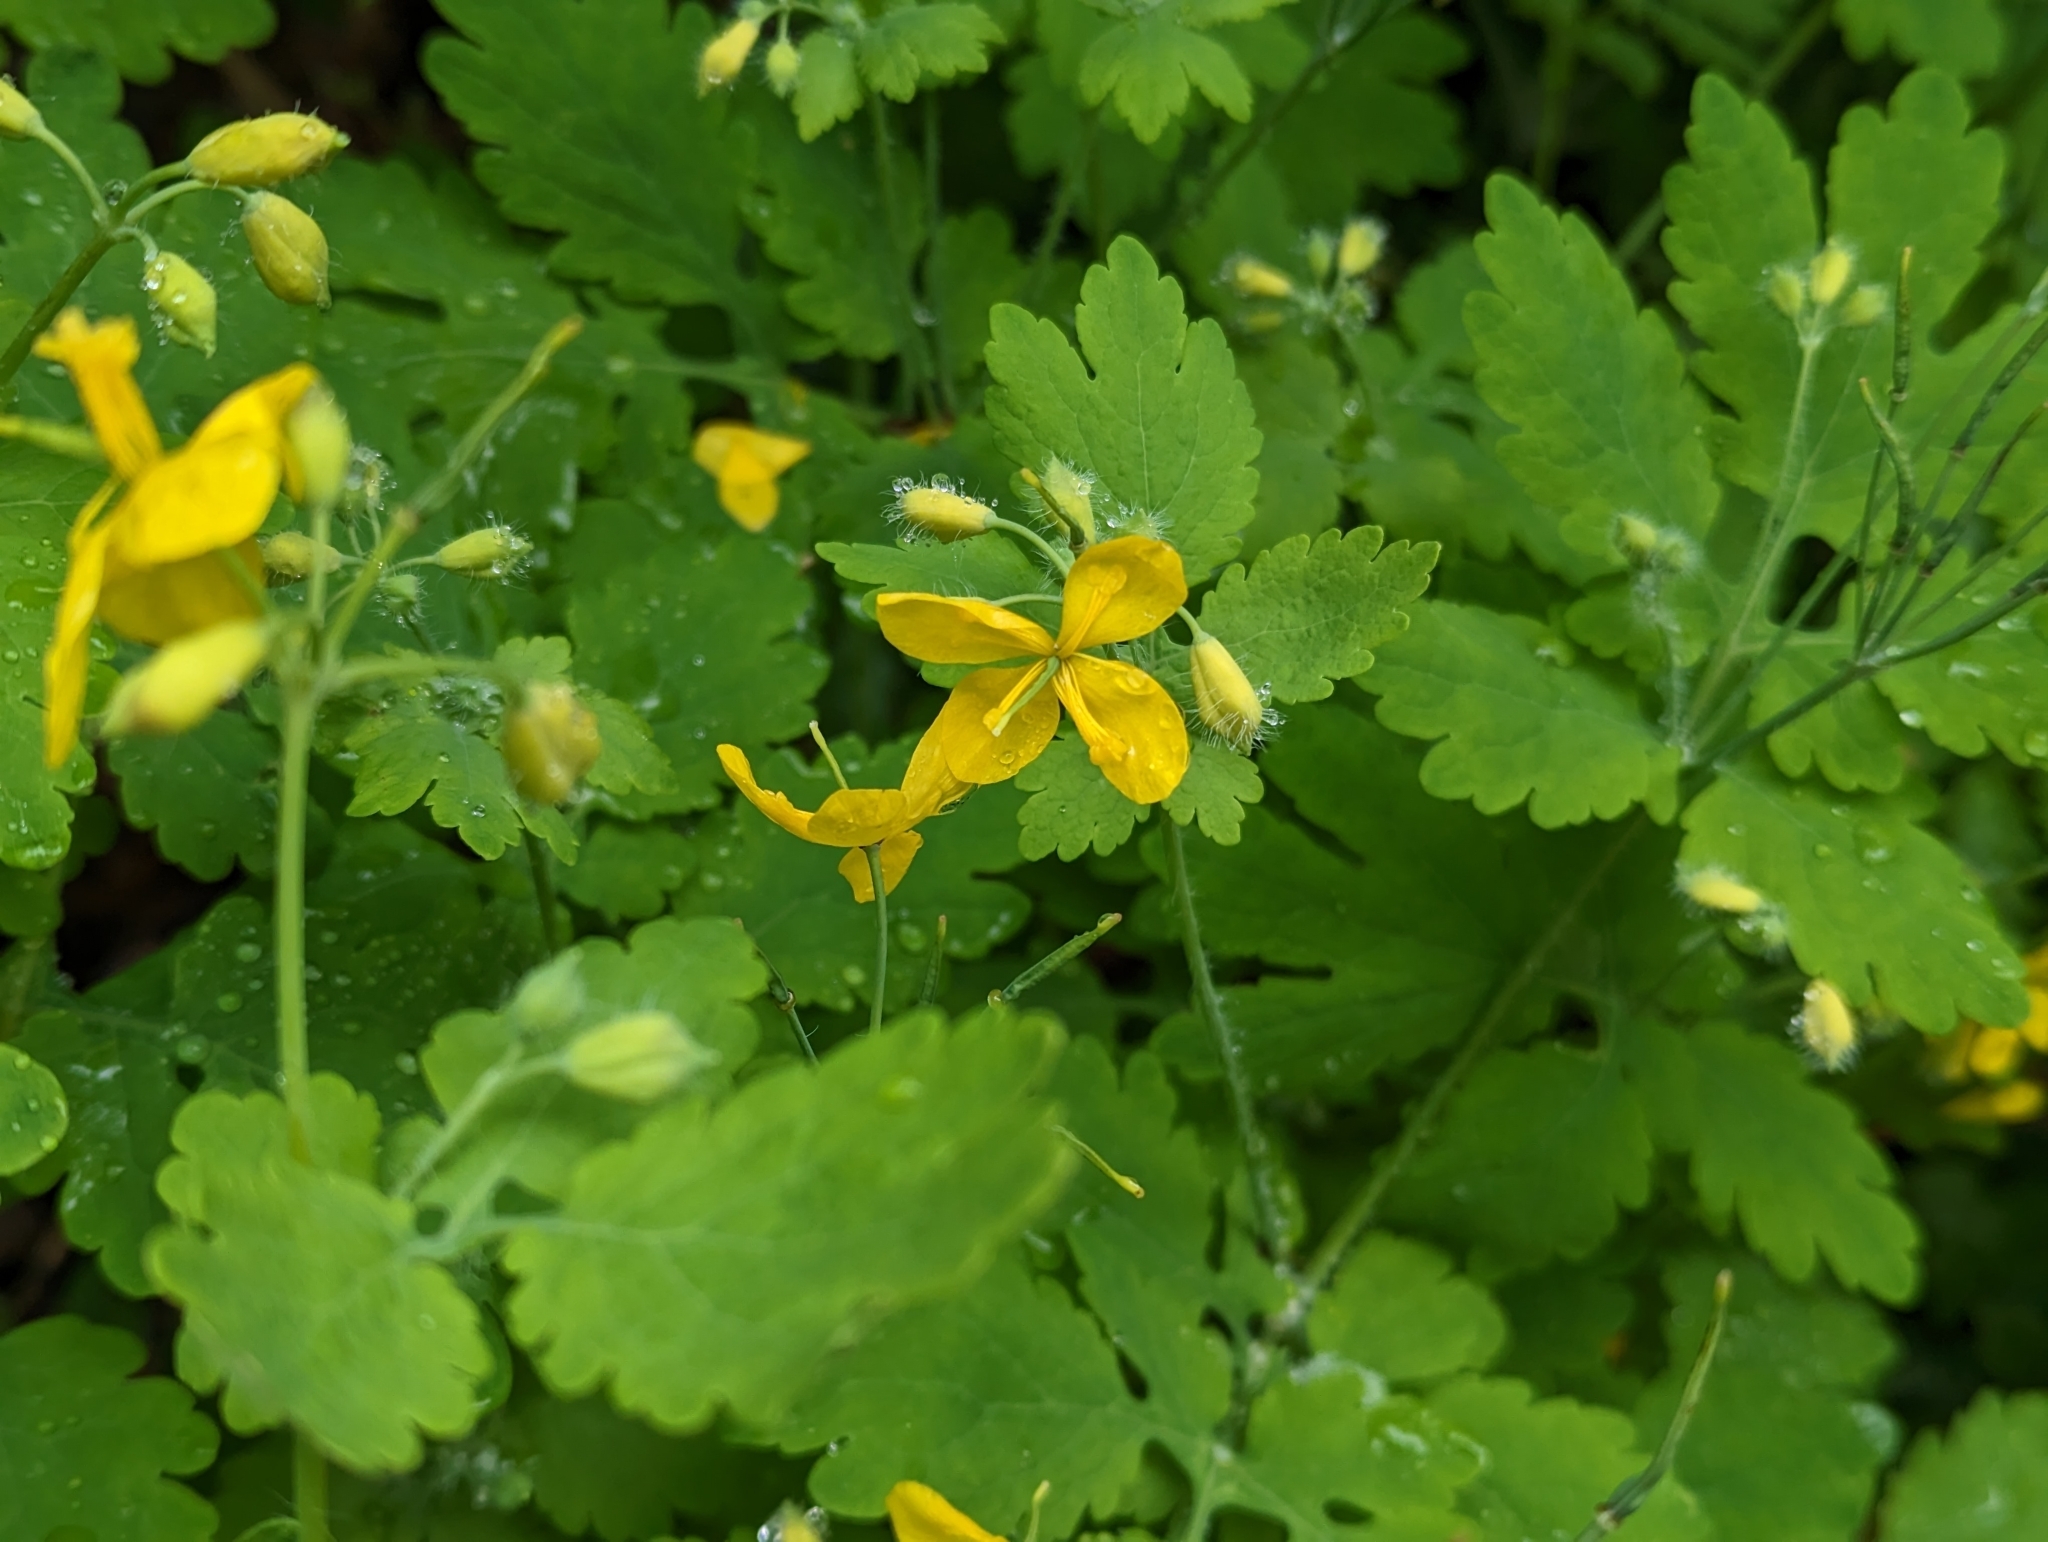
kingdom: Plantae
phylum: Tracheophyta
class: Magnoliopsida
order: Ranunculales
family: Papaveraceae
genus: Chelidonium
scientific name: Chelidonium majus
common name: Greater celandine
